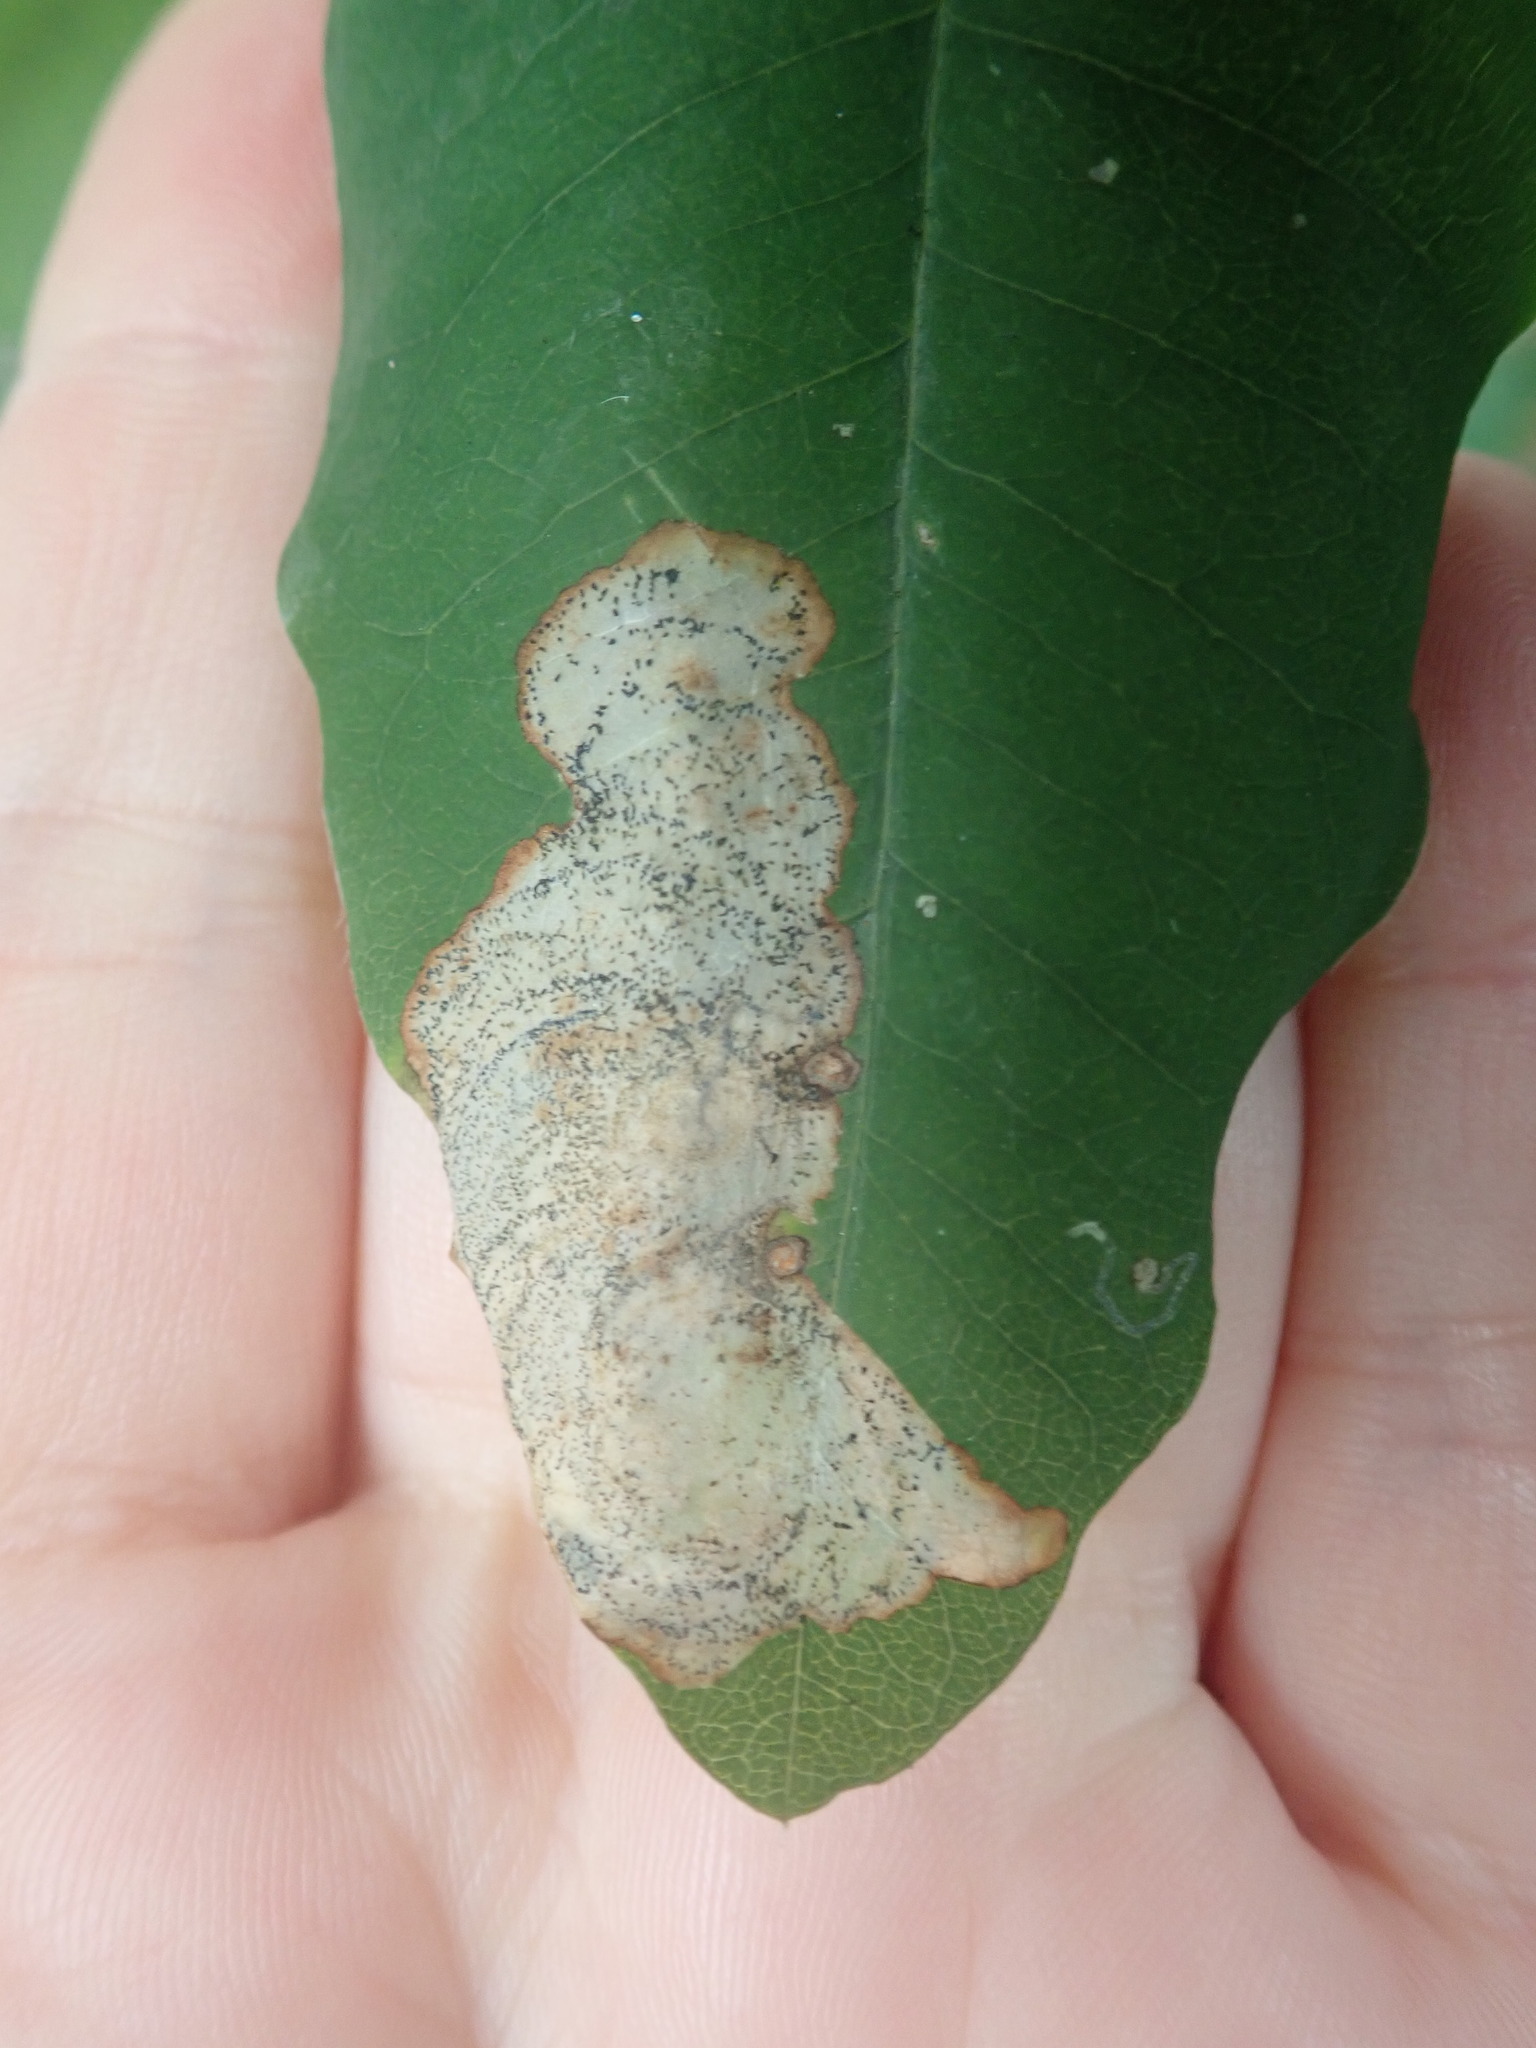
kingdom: Animalia
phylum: Arthropoda
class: Insecta
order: Lepidoptera
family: Lyonetiidae
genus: Leucoptera
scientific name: Leucoptera laburnella
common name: Laburnum leaf miner
